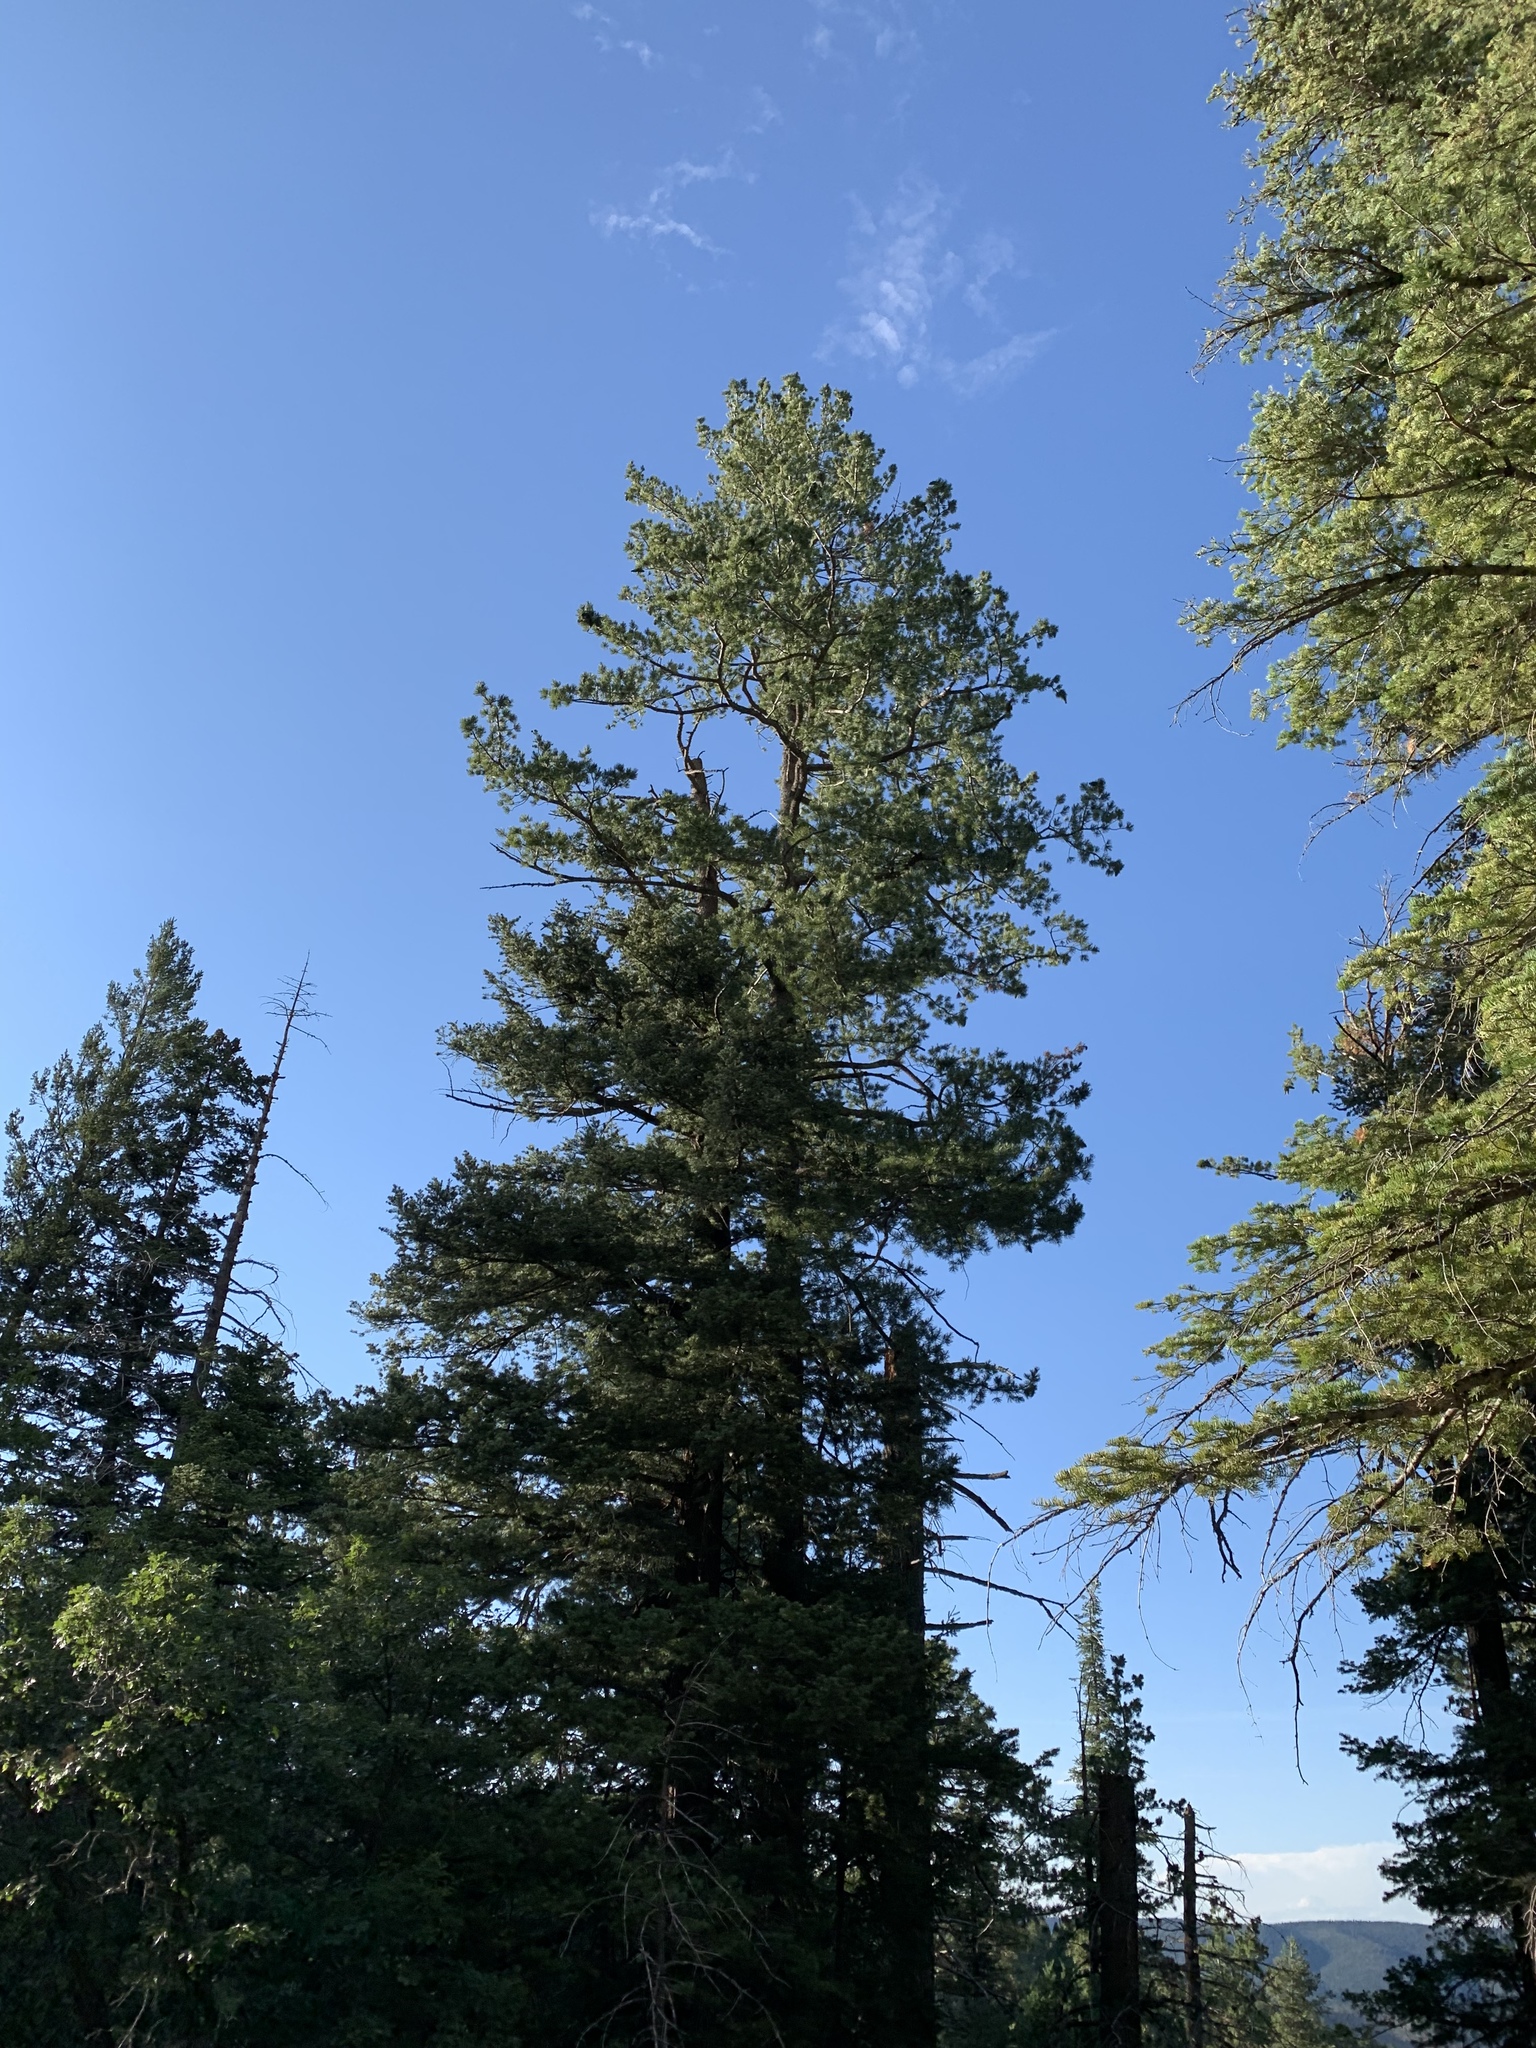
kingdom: Plantae
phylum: Tracheophyta
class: Pinopsida
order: Pinales
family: Pinaceae
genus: Pinus
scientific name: Pinus strobiformis
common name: Southwestern white pine
